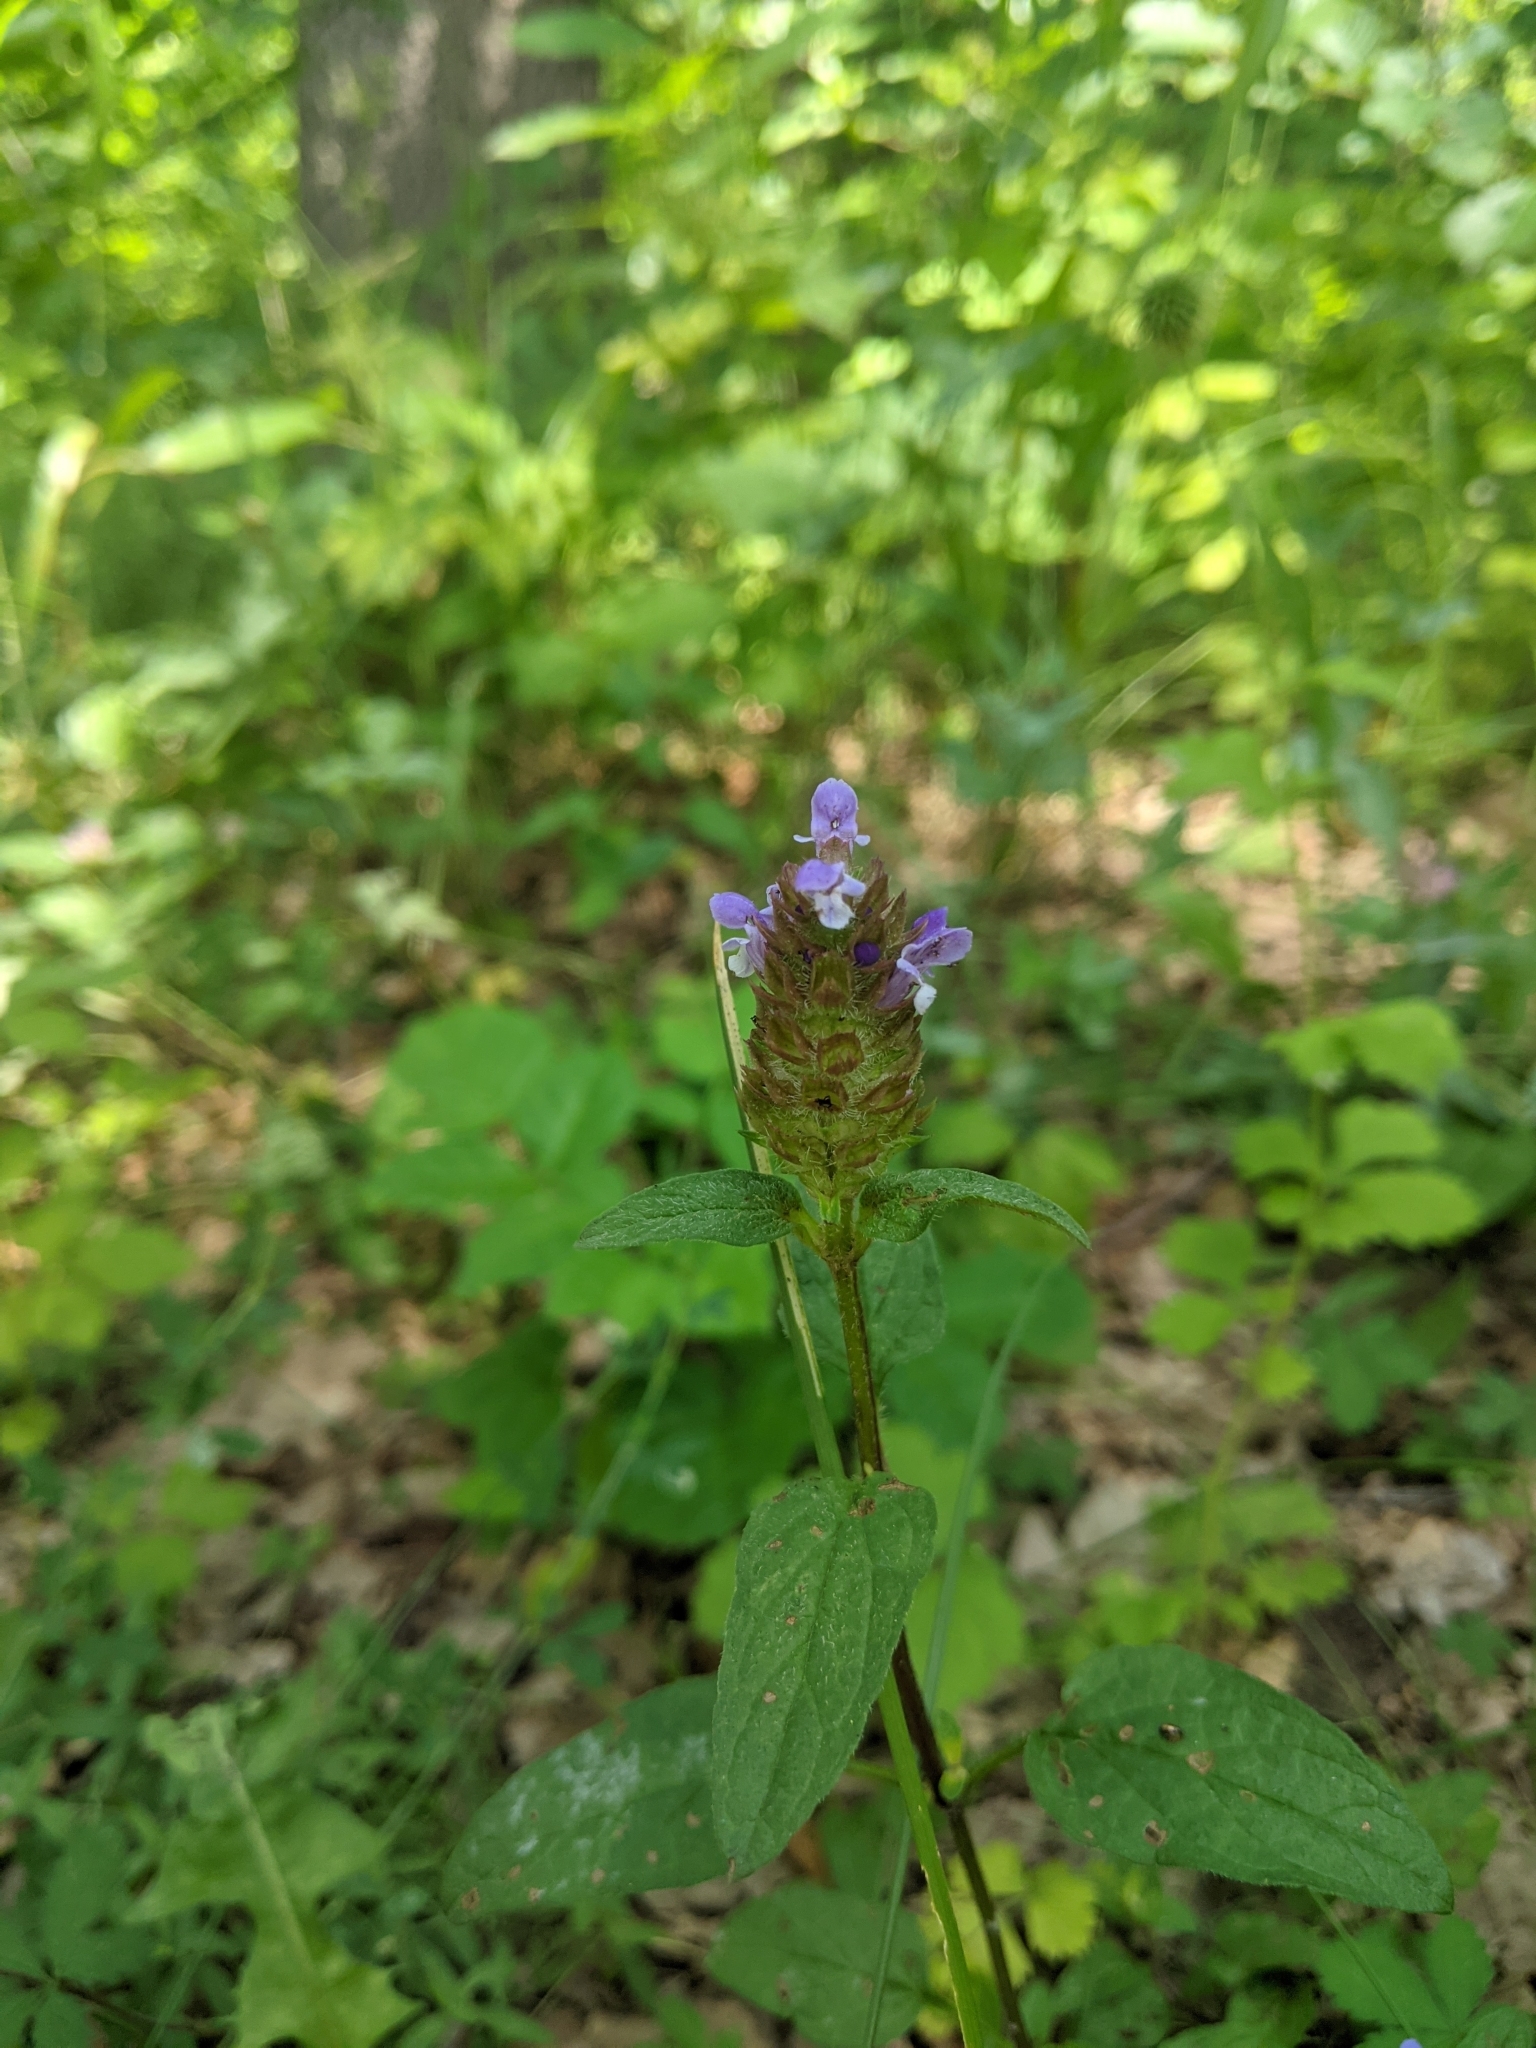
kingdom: Plantae
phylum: Tracheophyta
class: Magnoliopsida
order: Lamiales
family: Lamiaceae
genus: Prunella
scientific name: Prunella vulgaris
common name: Heal-all
